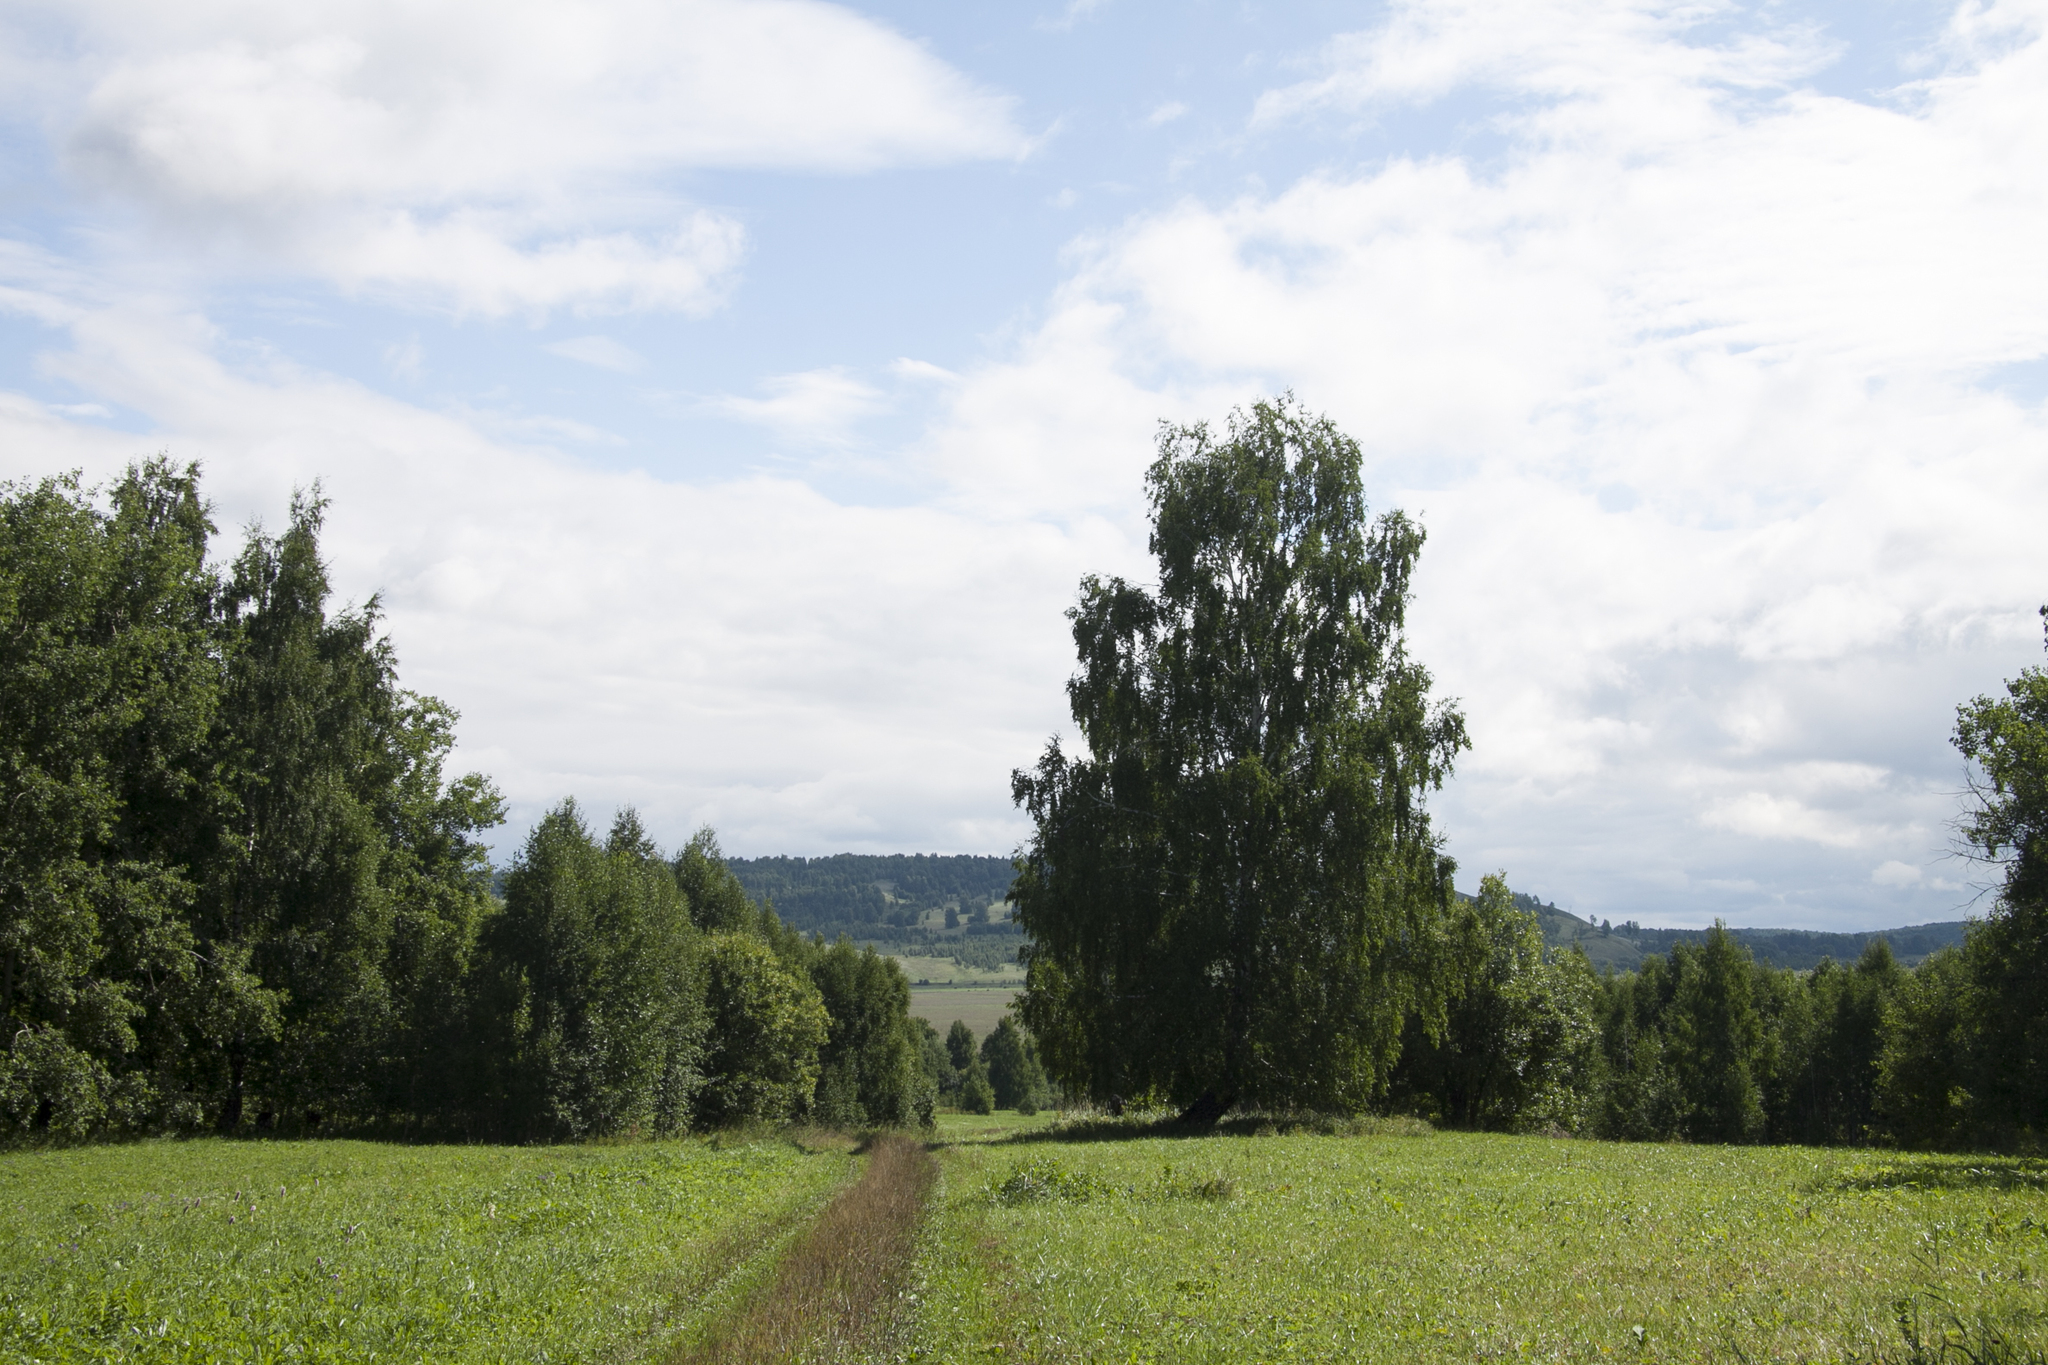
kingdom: Plantae
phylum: Tracheophyta
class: Magnoliopsida
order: Fagales
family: Betulaceae
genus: Betula
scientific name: Betula pendula
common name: Silver birch
